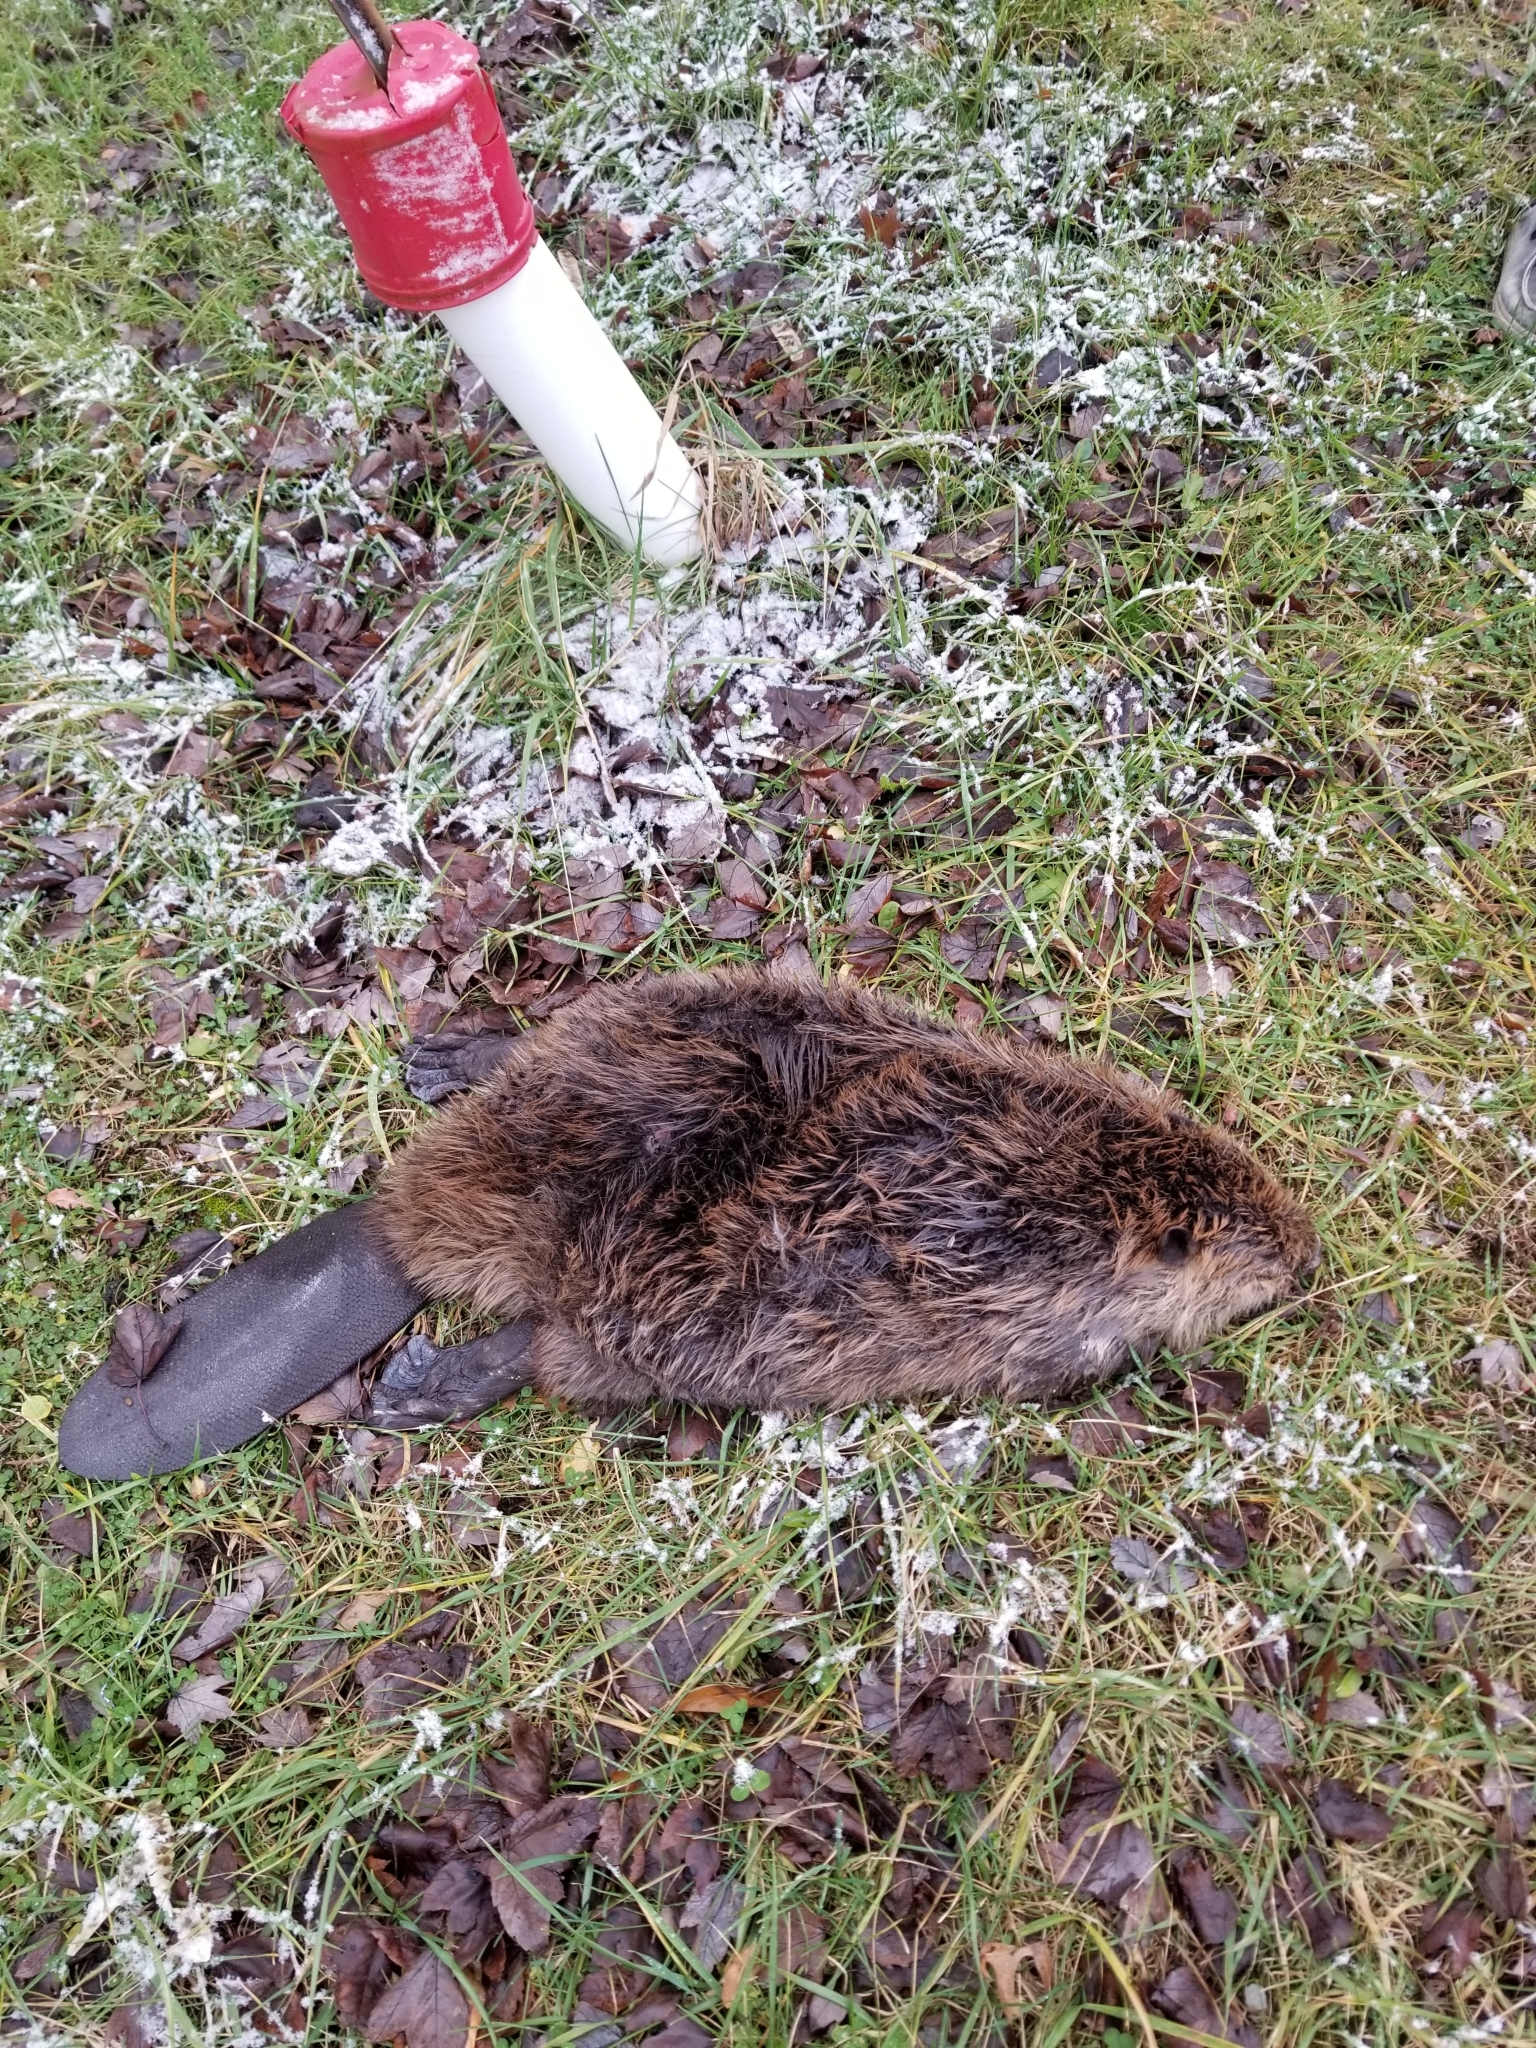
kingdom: Animalia
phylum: Chordata
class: Mammalia
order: Rodentia
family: Castoridae
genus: Castor
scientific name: Castor canadensis
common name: American beaver
